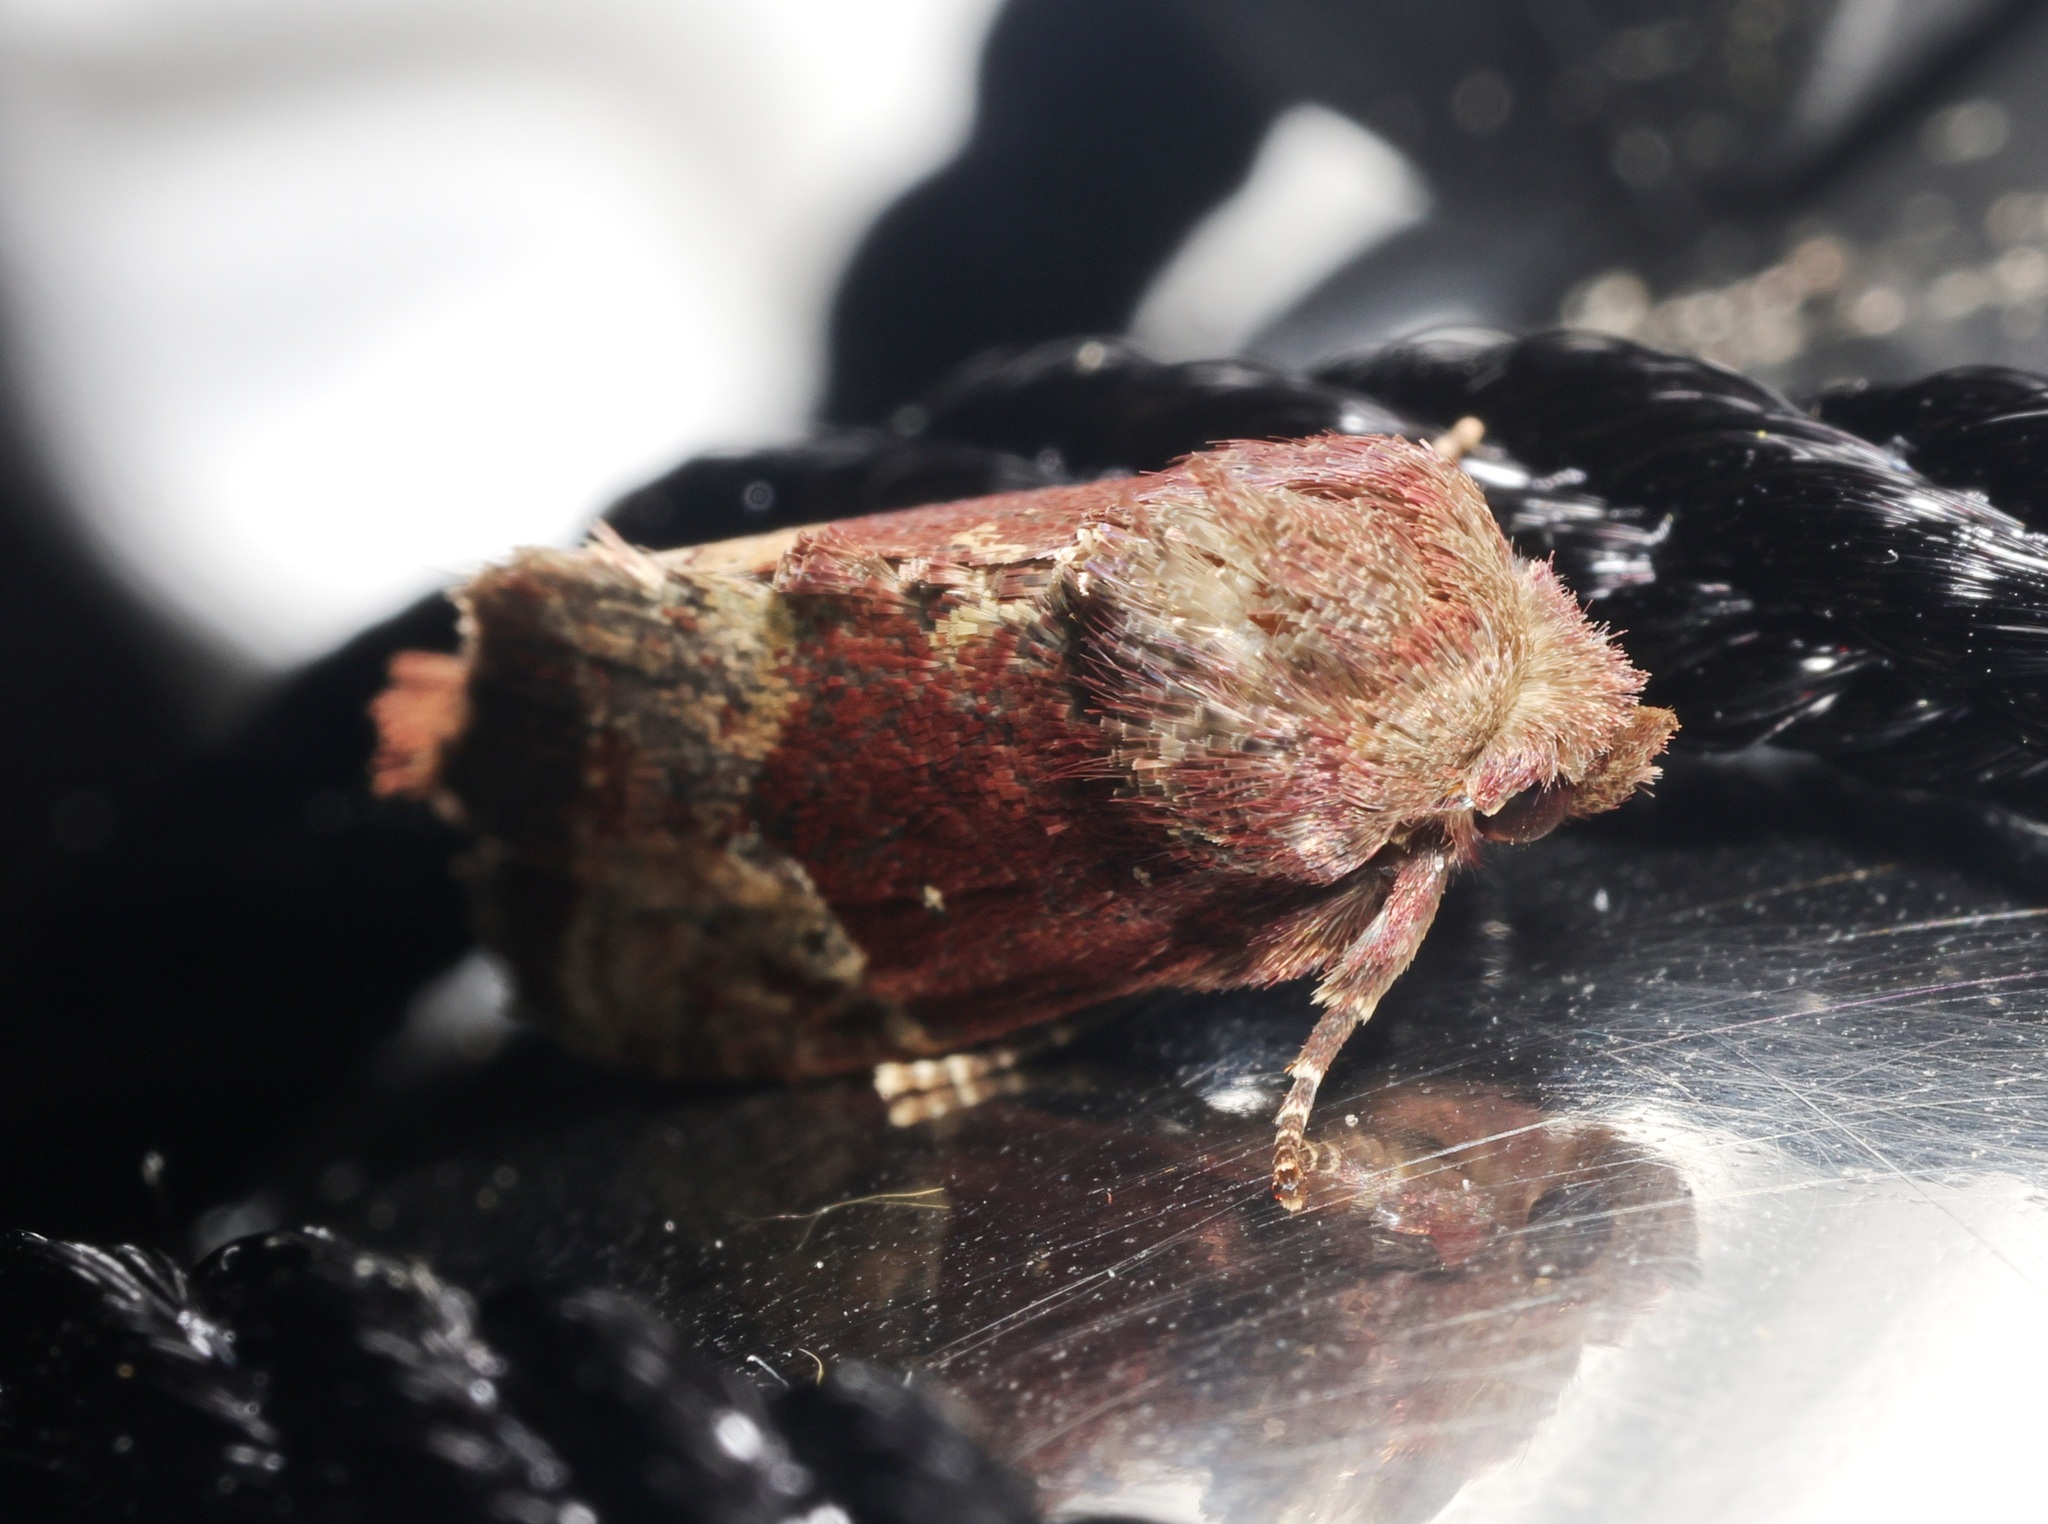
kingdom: Animalia
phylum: Arthropoda
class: Insecta
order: Lepidoptera
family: Noctuidae
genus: Elusa
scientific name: Elusa cyathicornis
